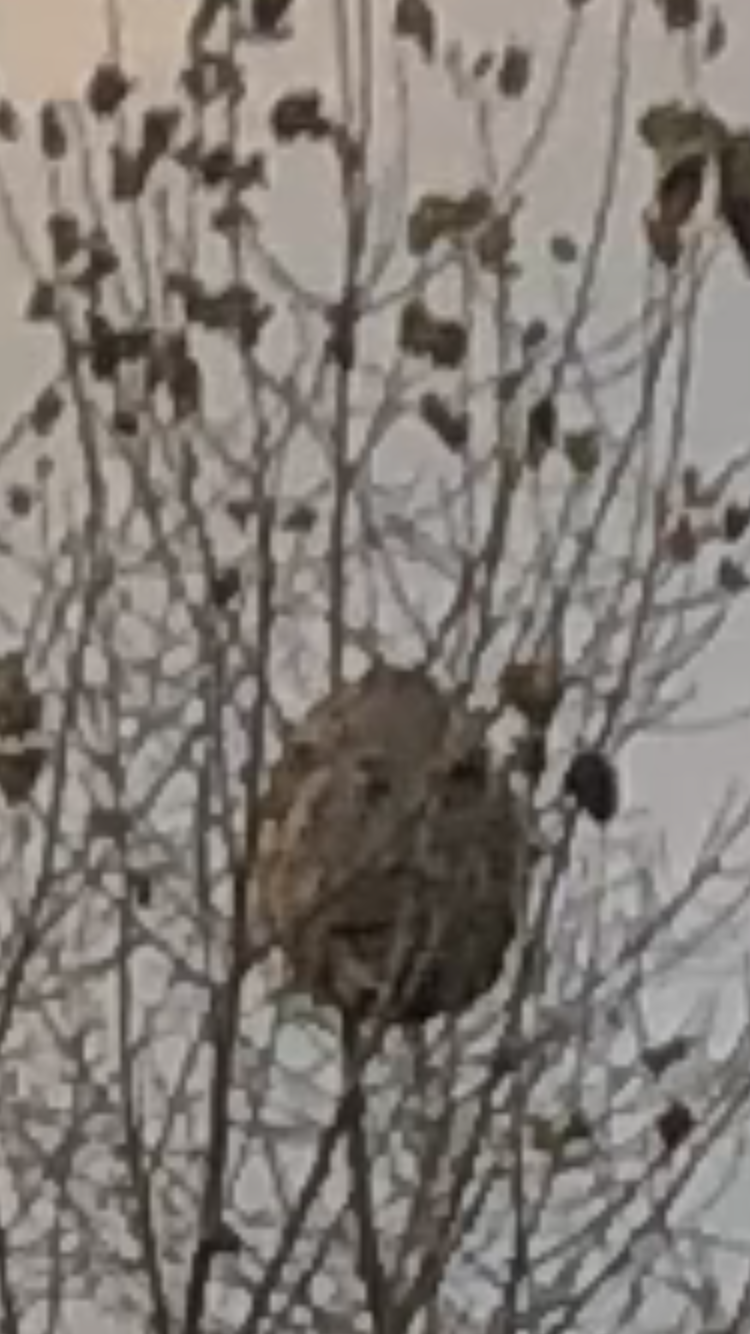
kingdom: Animalia
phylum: Arthropoda
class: Insecta
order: Hymenoptera
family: Vespidae
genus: Vespa
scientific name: Vespa velutina
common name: Asian hornet
